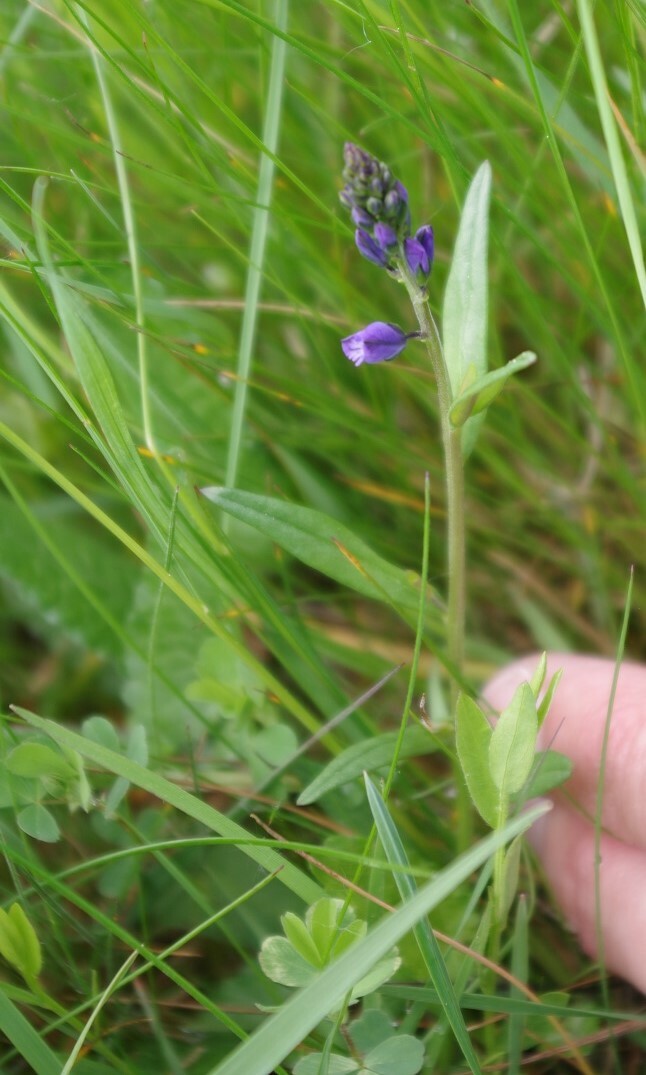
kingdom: Plantae
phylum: Tracheophyta
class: Magnoliopsida
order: Fabales
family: Polygalaceae
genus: Polygala
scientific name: Polygala vulgaris
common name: Common milkwort
